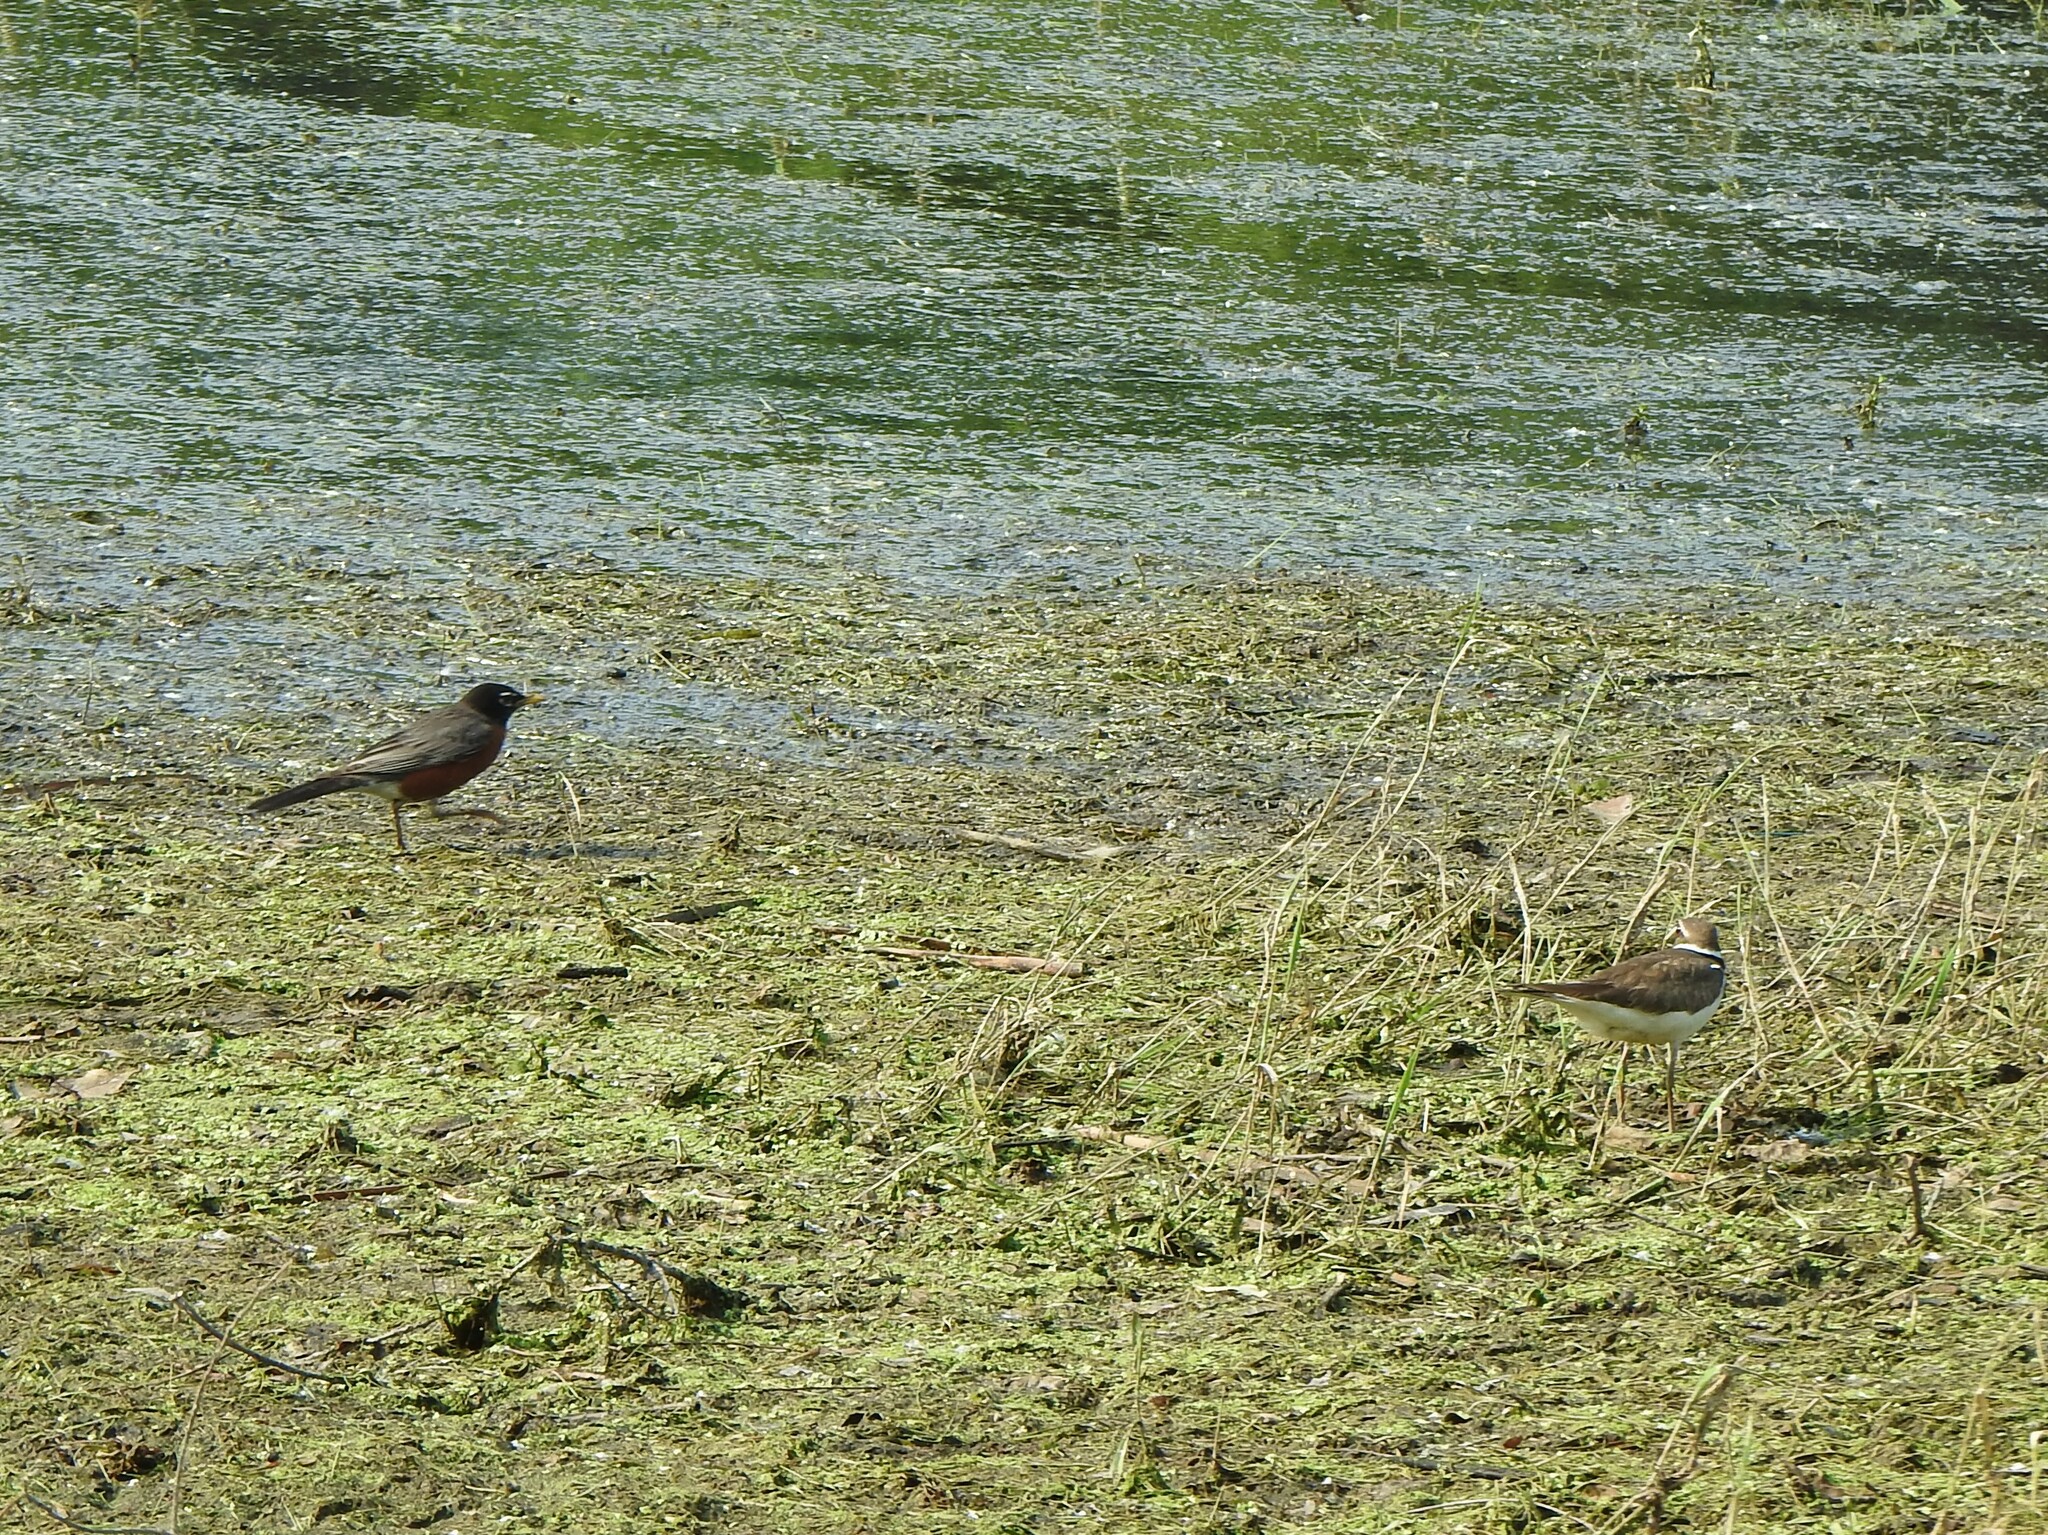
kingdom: Animalia
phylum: Chordata
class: Aves
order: Charadriiformes
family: Charadriidae
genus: Charadrius
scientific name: Charadrius vociferus
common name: Killdeer
